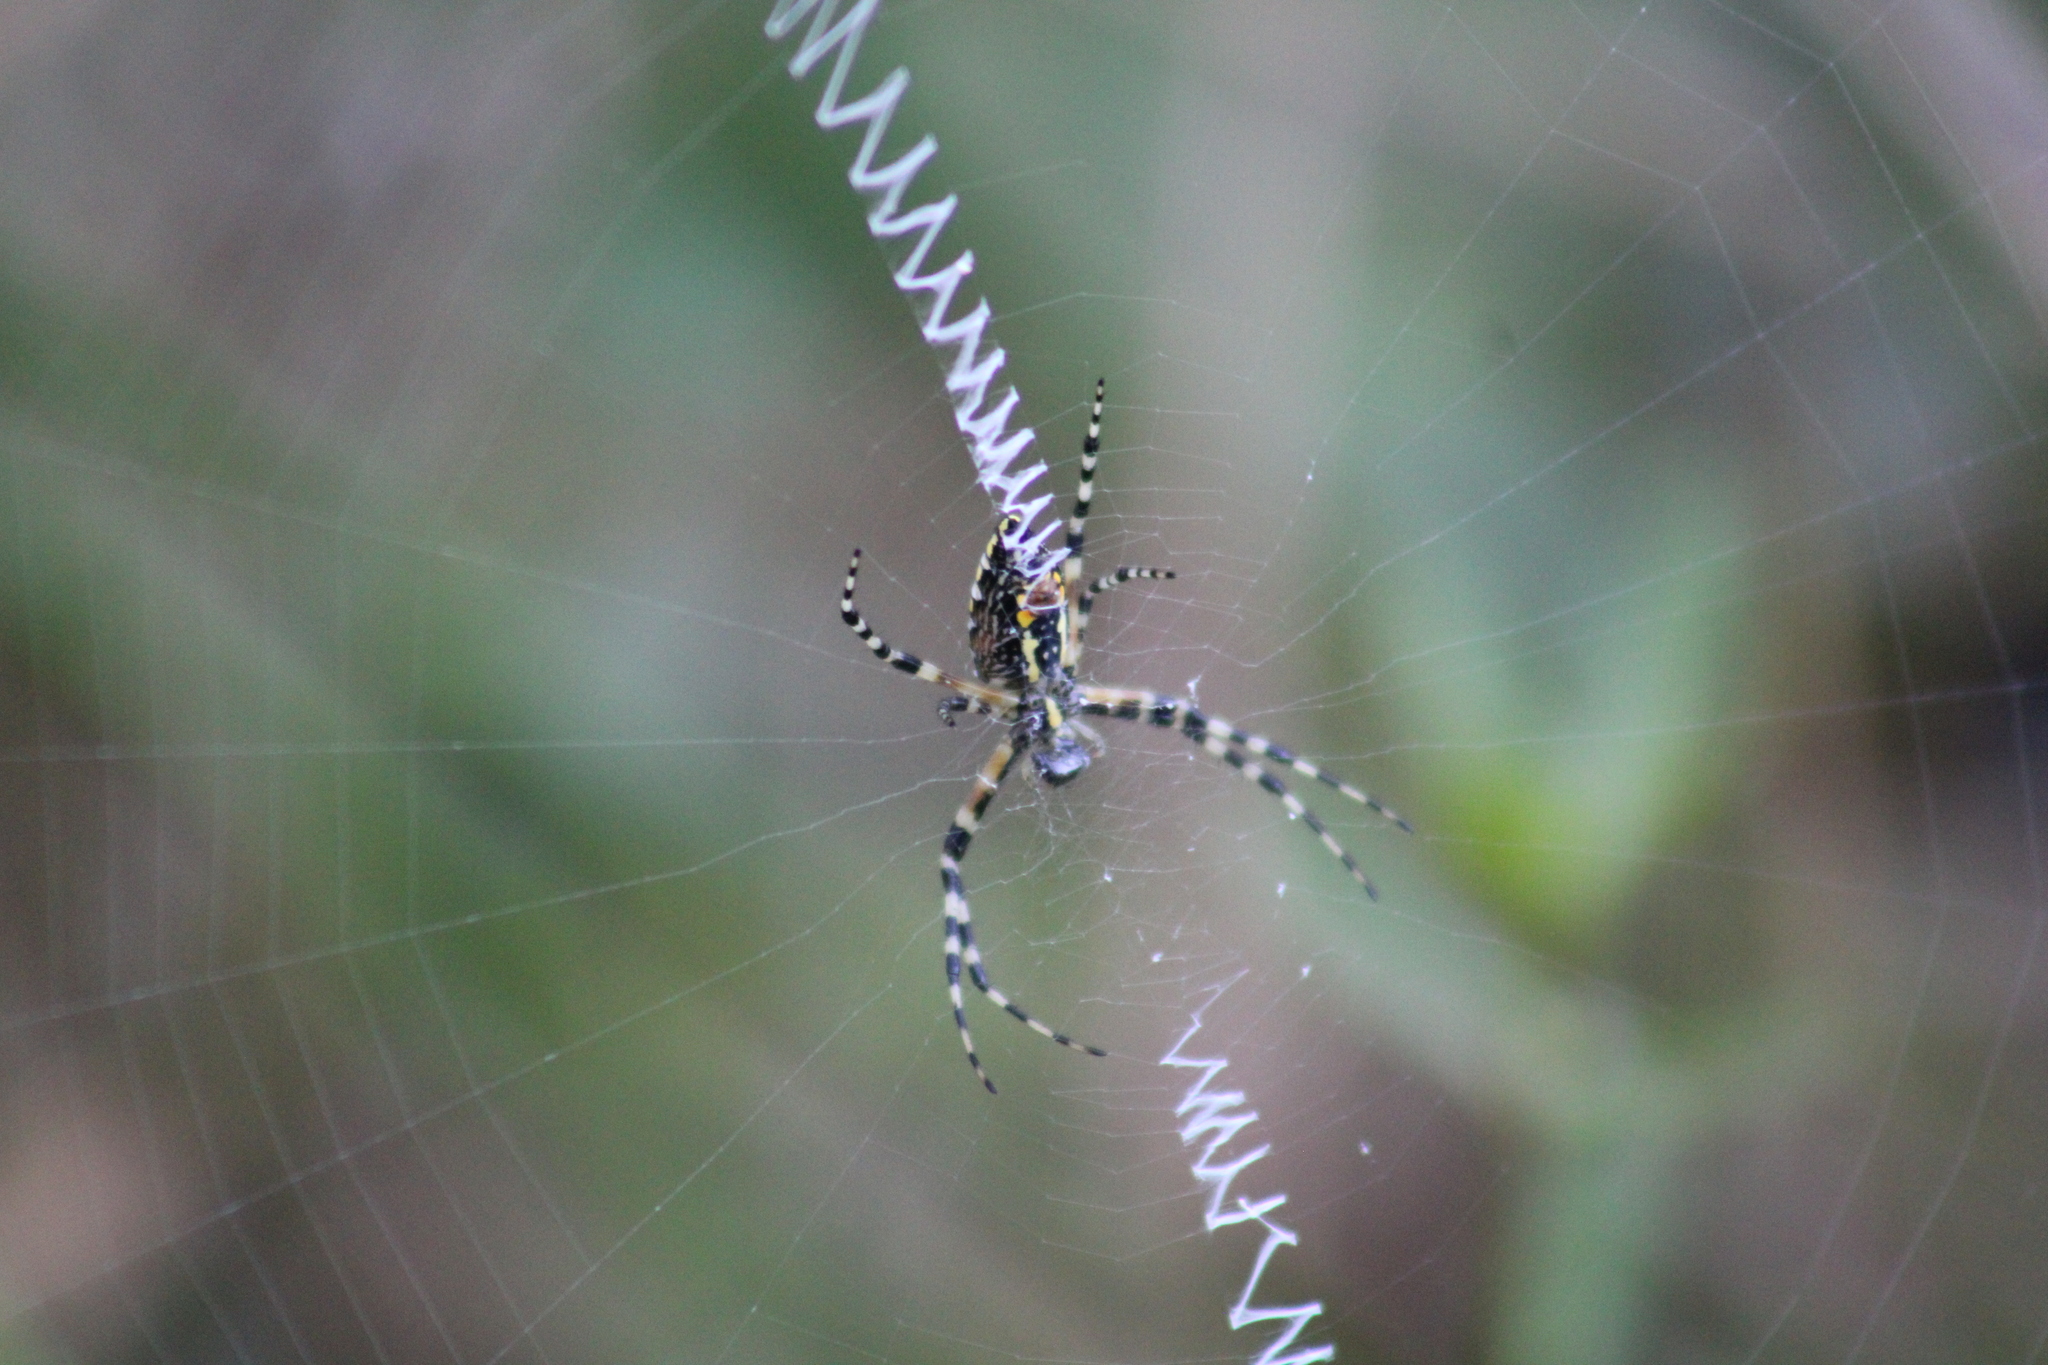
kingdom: Animalia
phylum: Arthropoda
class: Arachnida
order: Araneae
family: Araneidae
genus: Argiope
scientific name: Argiope aurantia
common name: Orb weavers
